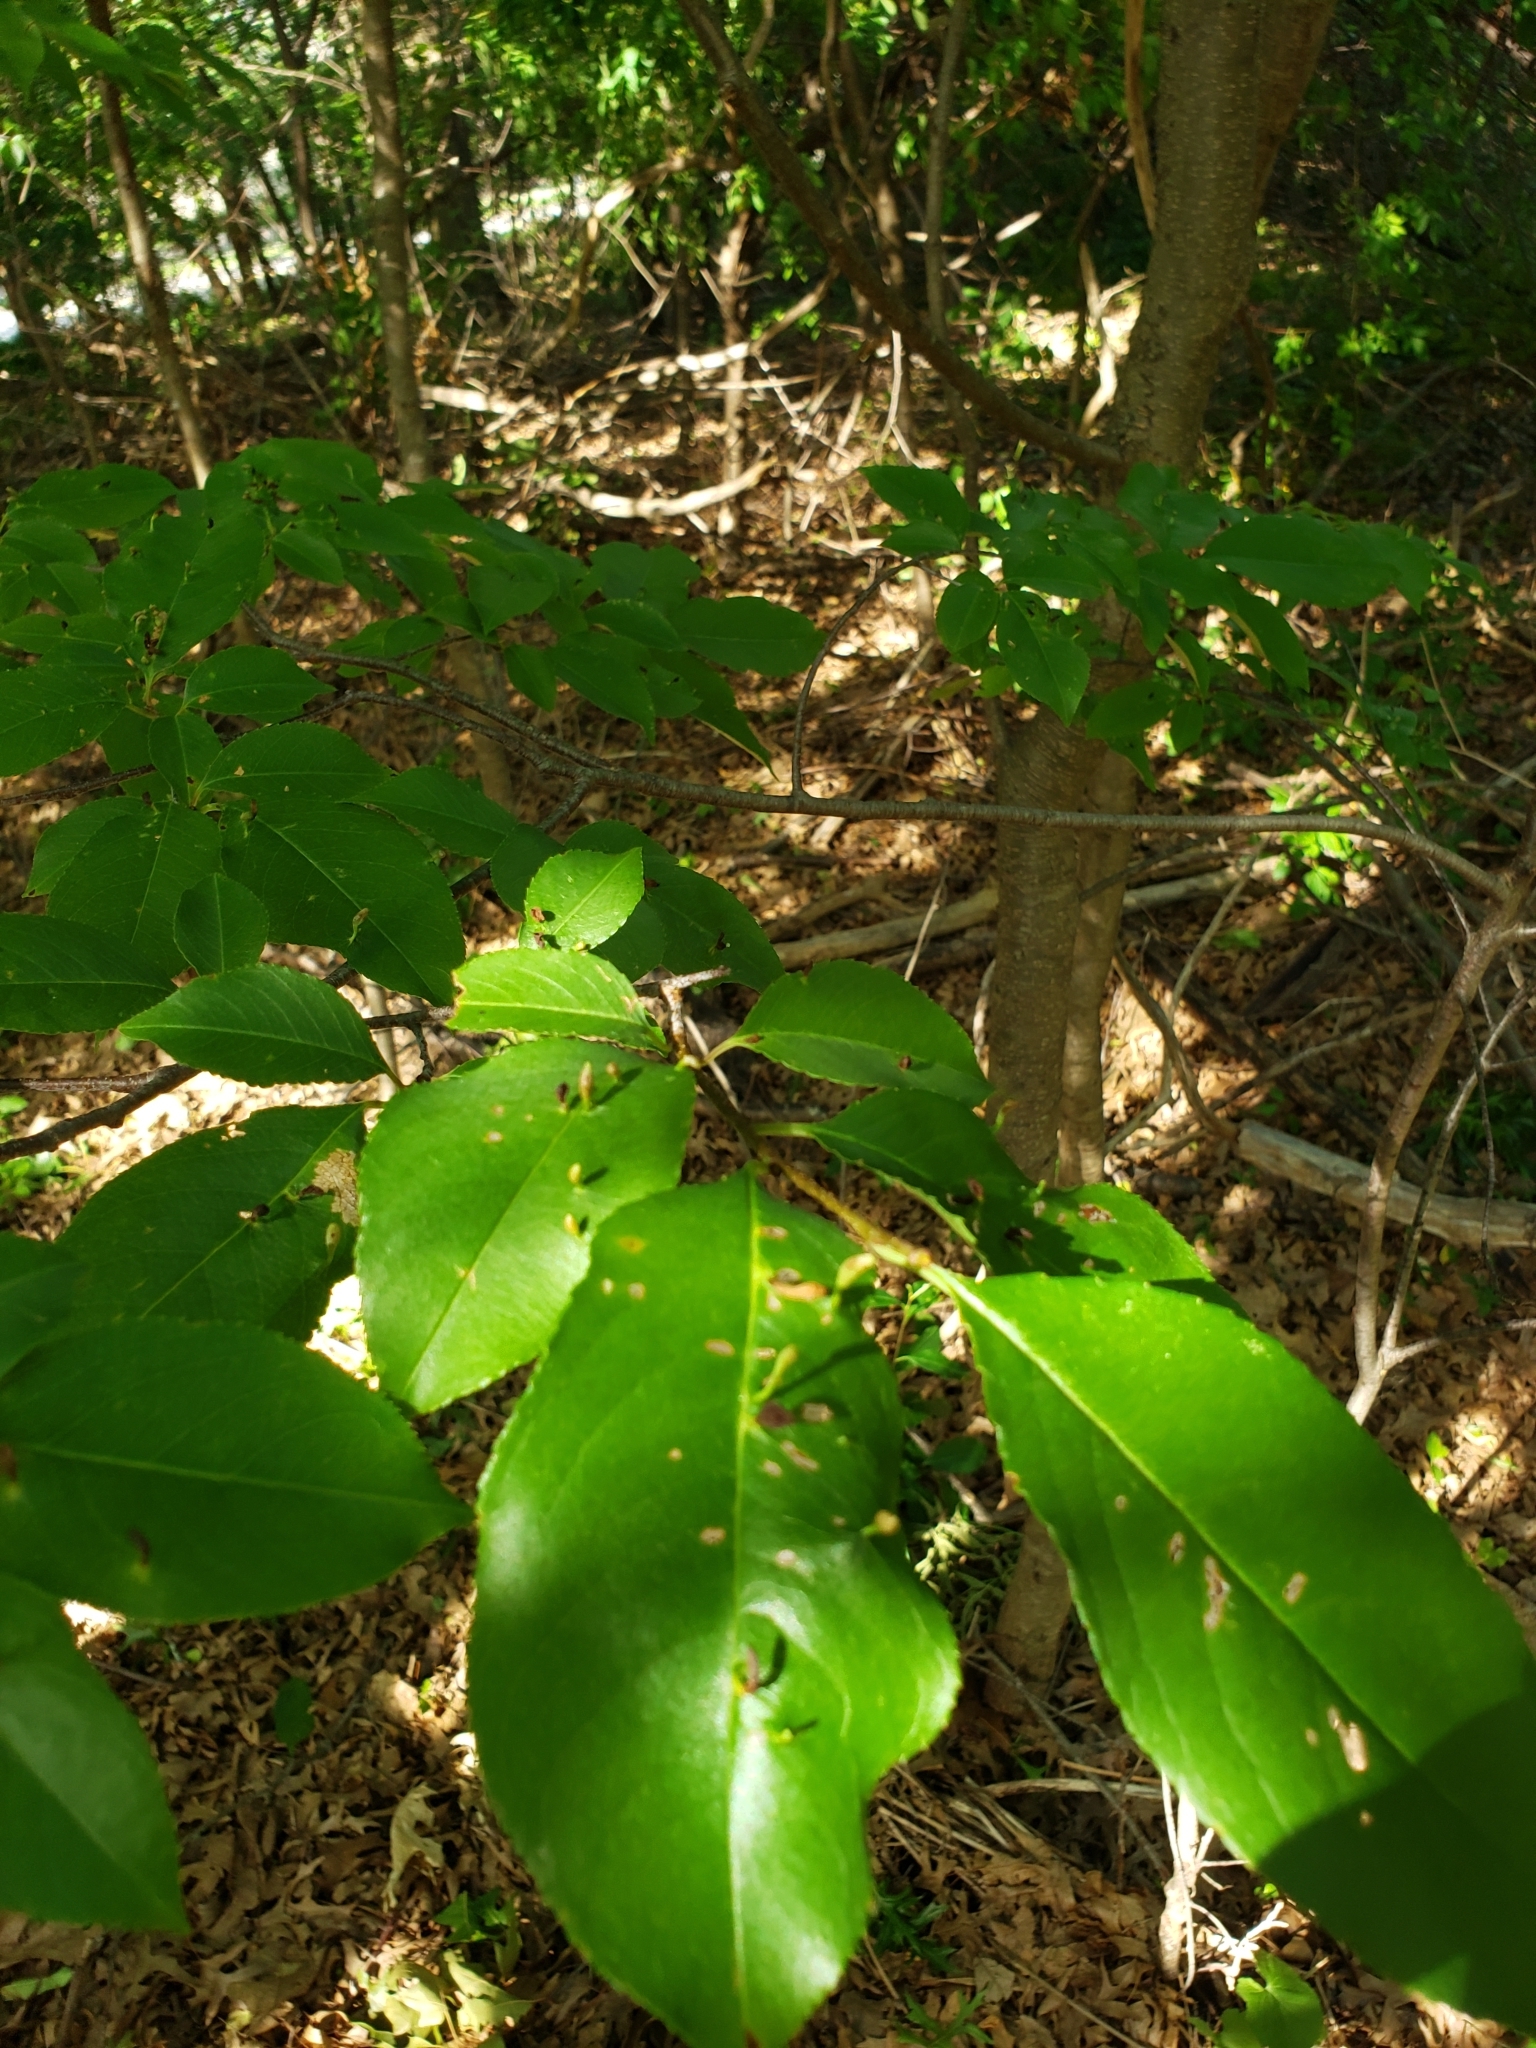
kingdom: Animalia
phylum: Arthropoda
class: Arachnida
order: Trombidiformes
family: Eriophyidae
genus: Eriophyes
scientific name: Eriophyes
